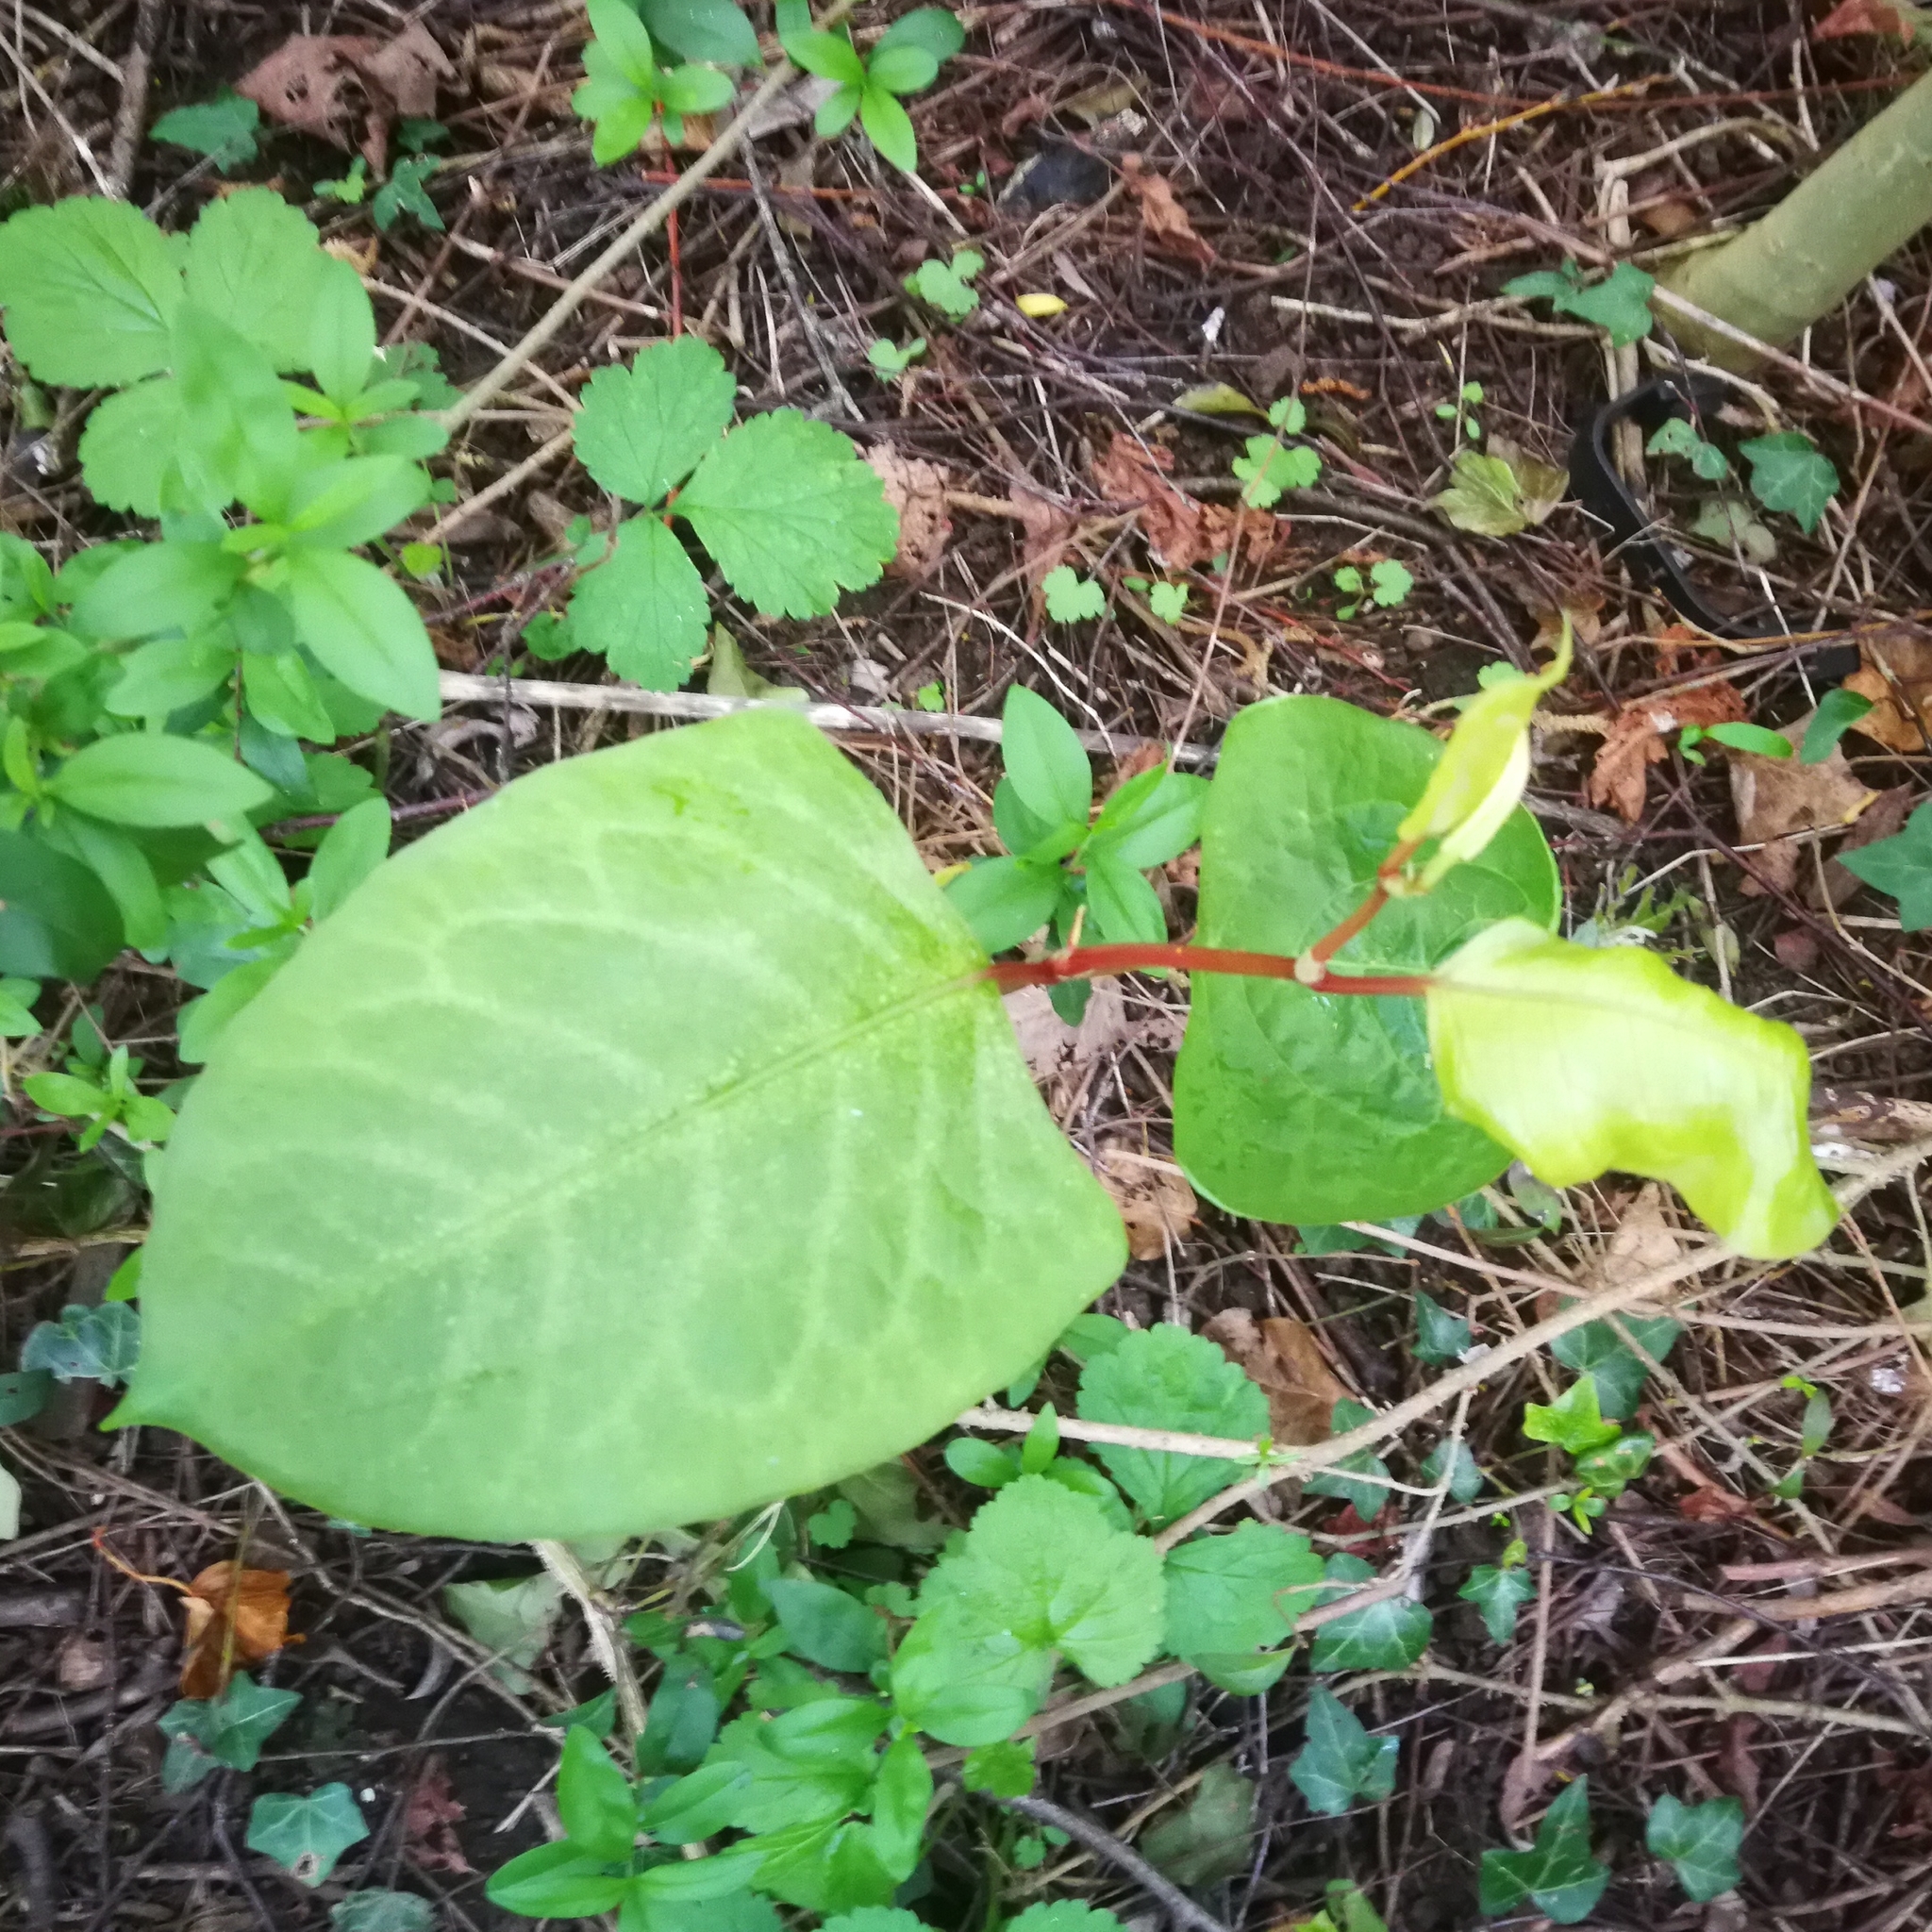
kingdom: Plantae
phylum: Tracheophyta
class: Magnoliopsida
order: Caryophyllales
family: Polygonaceae
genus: Reynoutria
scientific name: Reynoutria japonica
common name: Japanese knotweed
